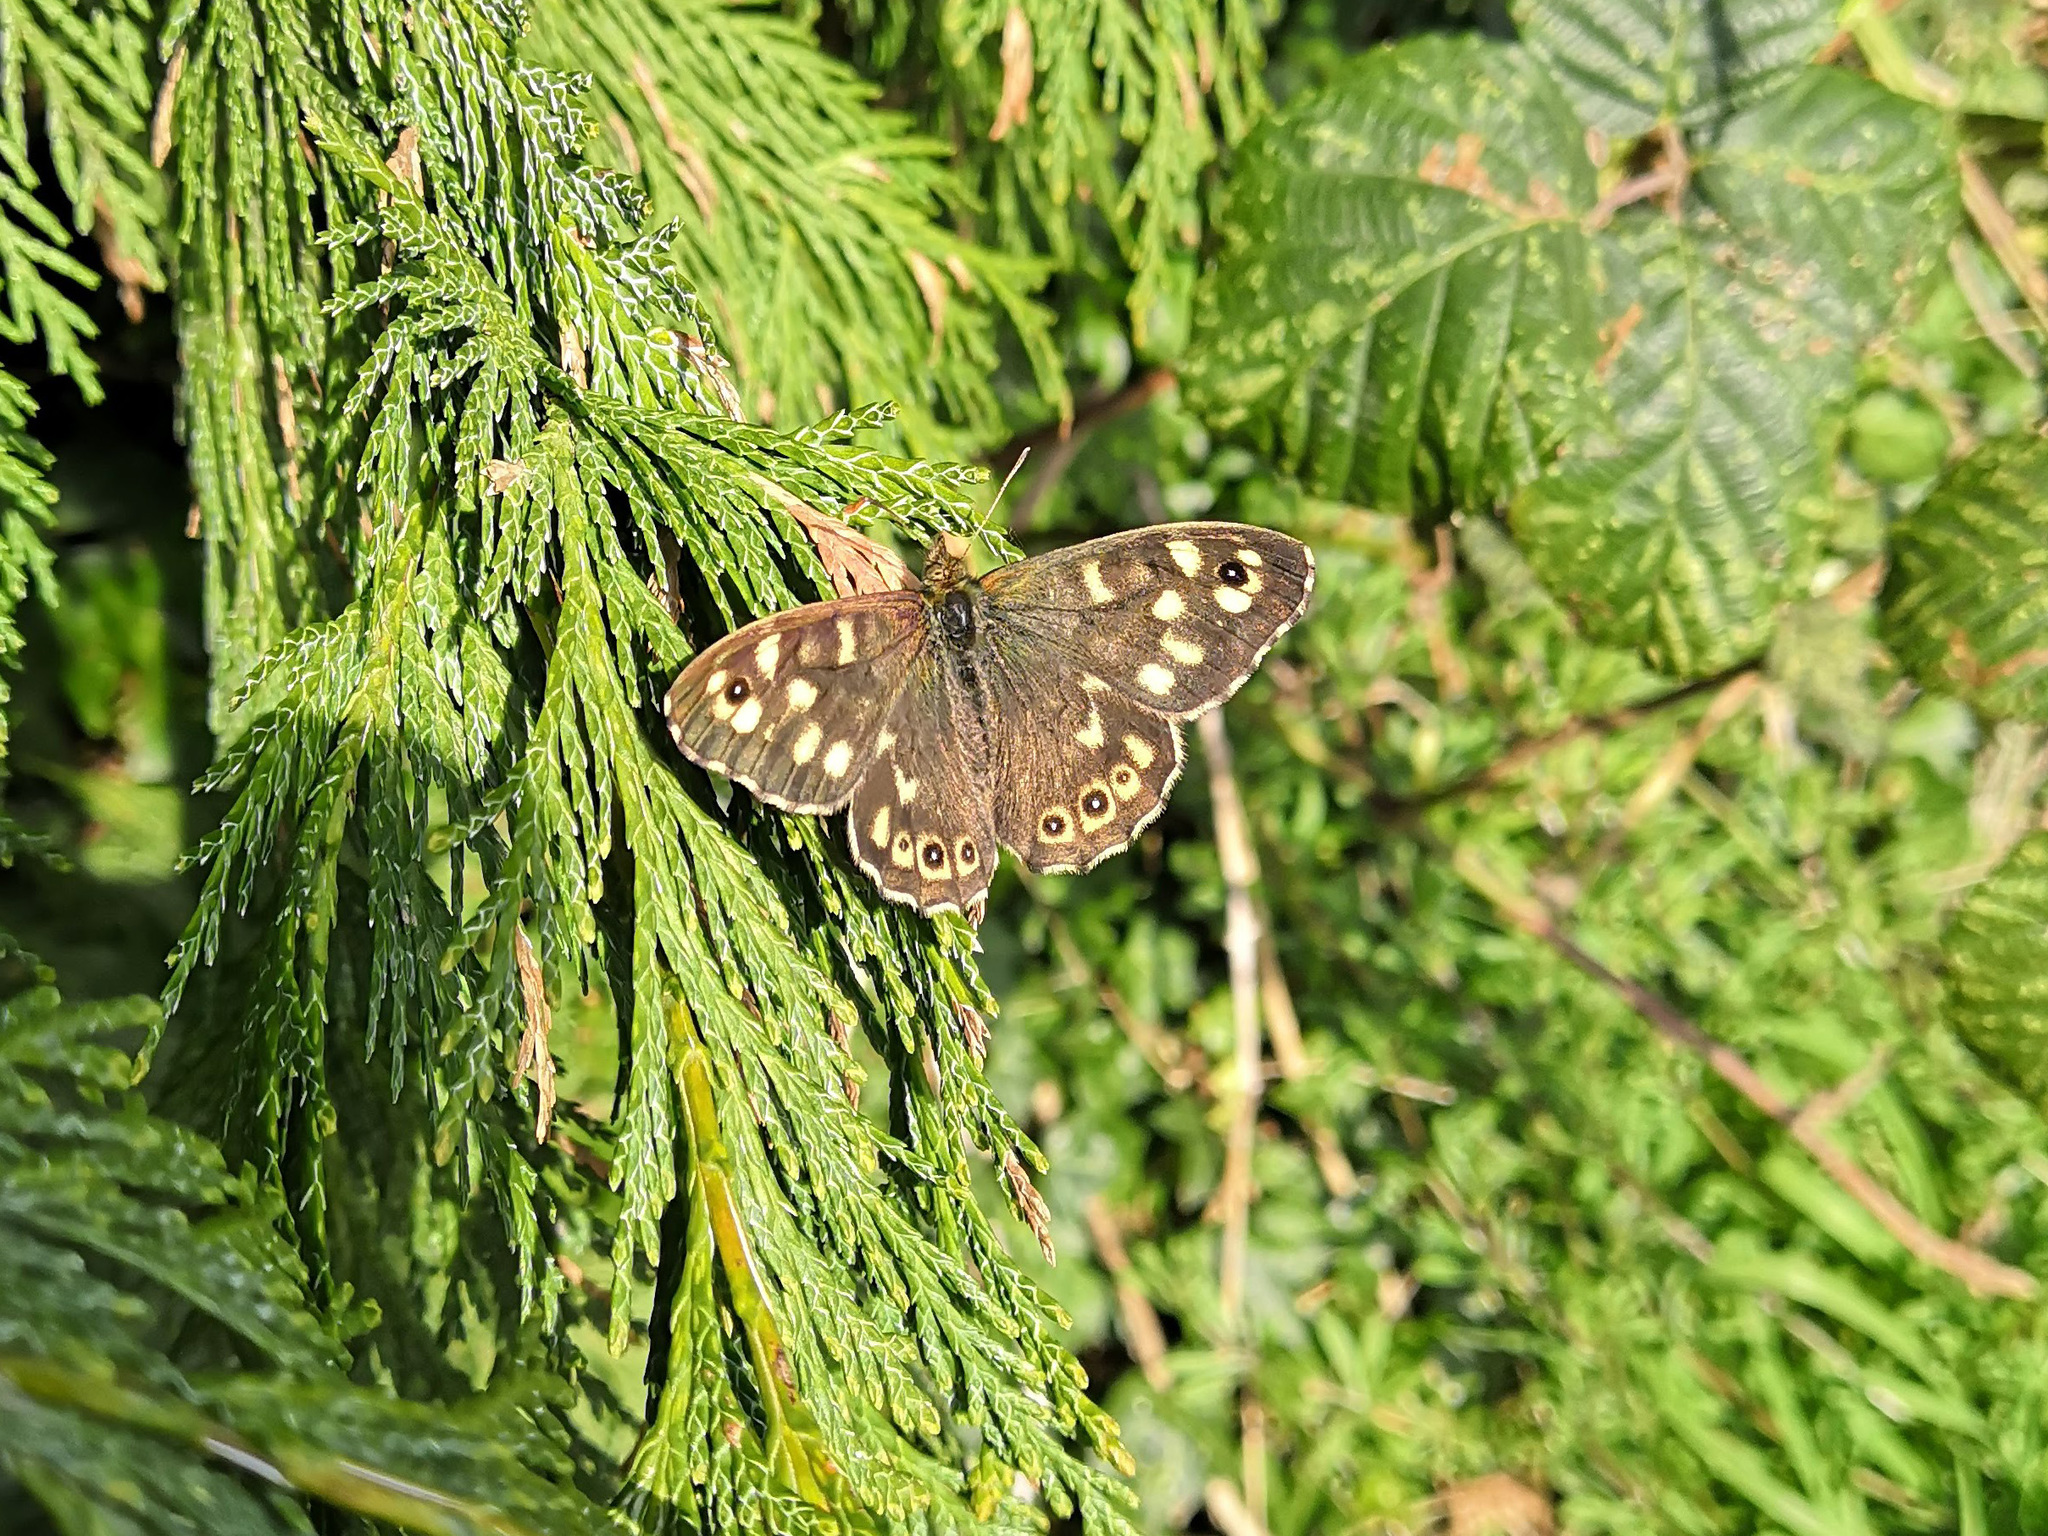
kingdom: Animalia
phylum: Arthropoda
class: Insecta
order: Lepidoptera
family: Nymphalidae
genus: Pararge
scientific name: Pararge aegeria
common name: Speckled wood
